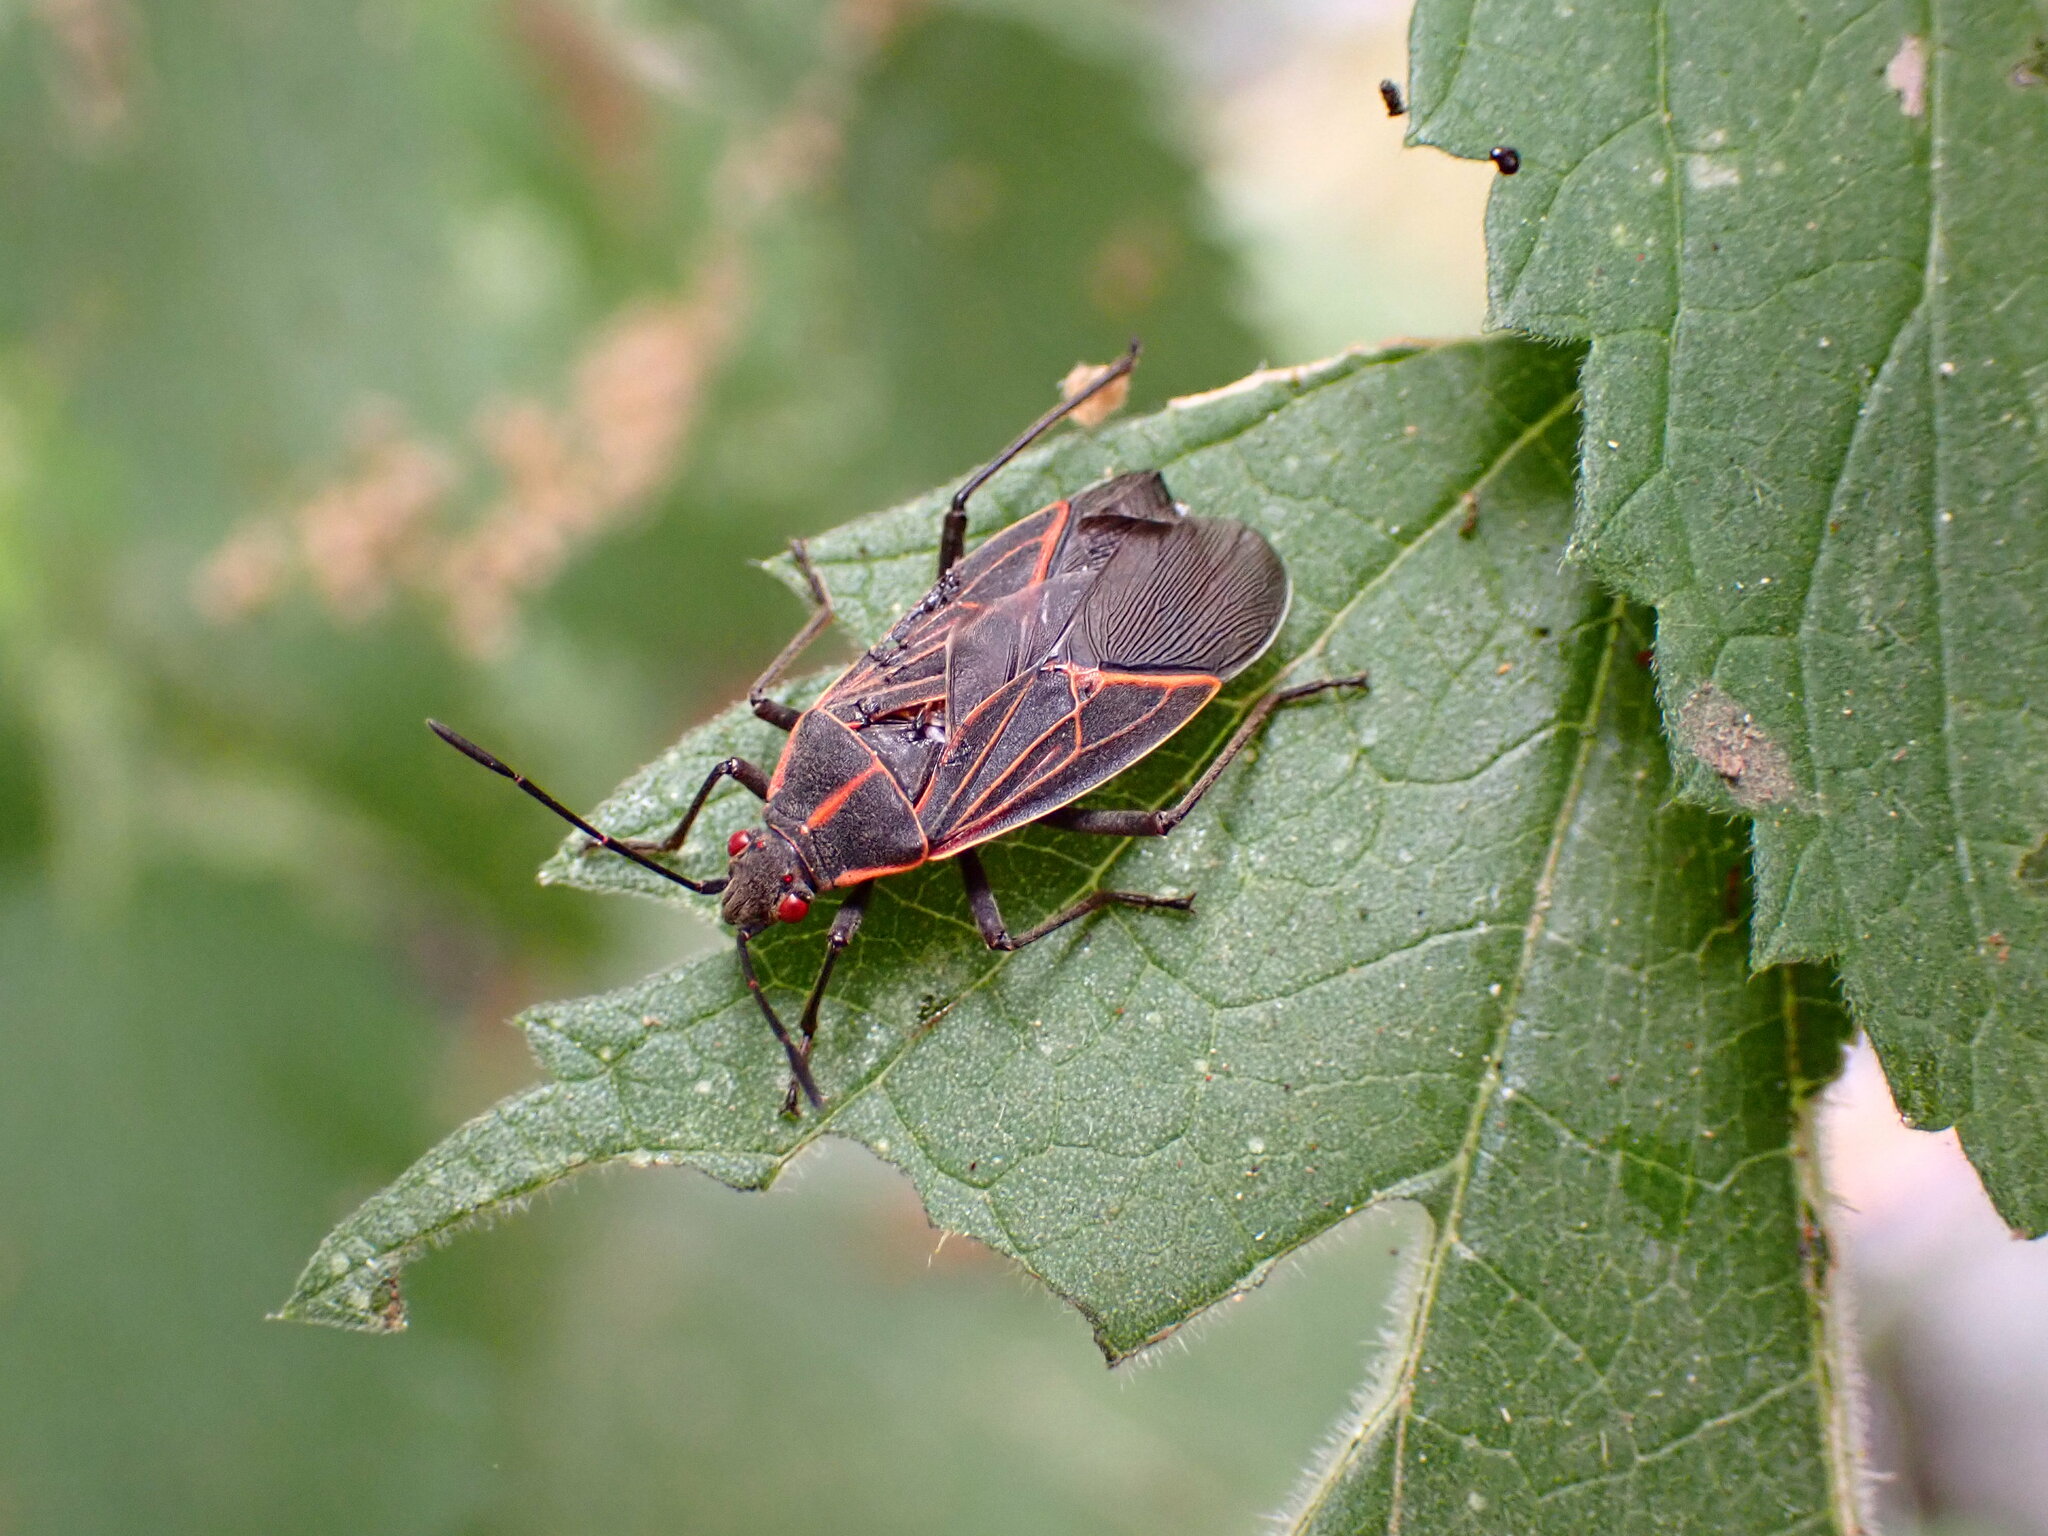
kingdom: Animalia
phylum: Arthropoda
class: Insecta
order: Hemiptera
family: Rhopalidae
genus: Boisea
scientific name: Boisea rubrolineata
